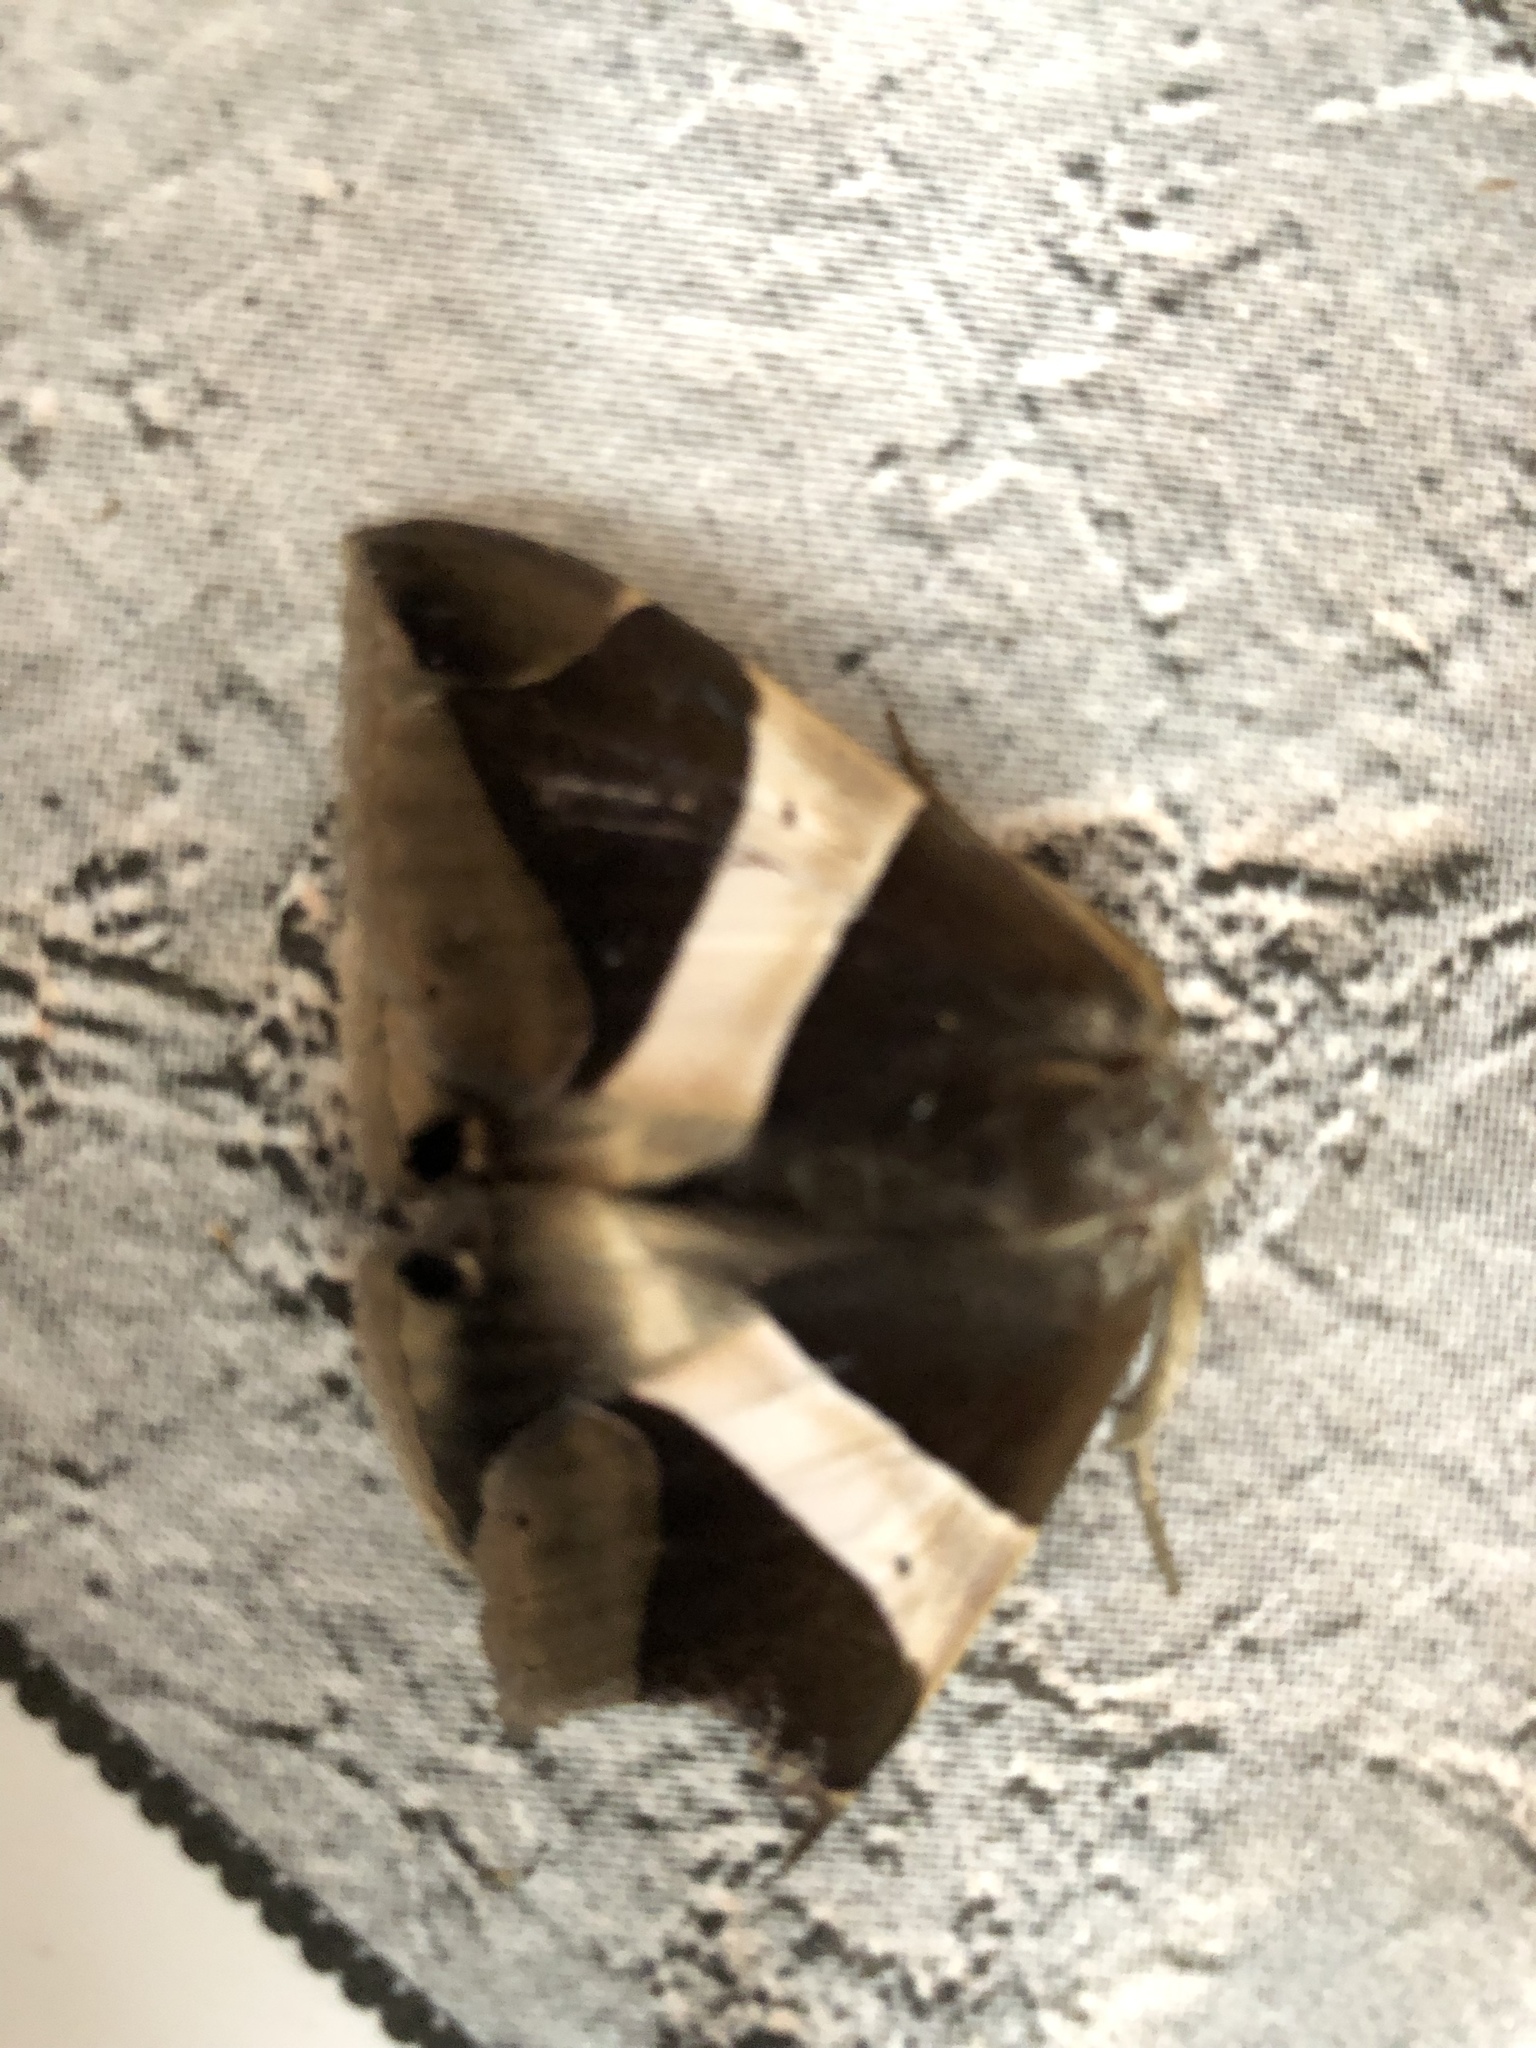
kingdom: Animalia
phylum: Arthropoda
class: Insecta
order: Lepidoptera
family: Erebidae
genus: Dysgonia
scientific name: Dysgonia praetermissa
